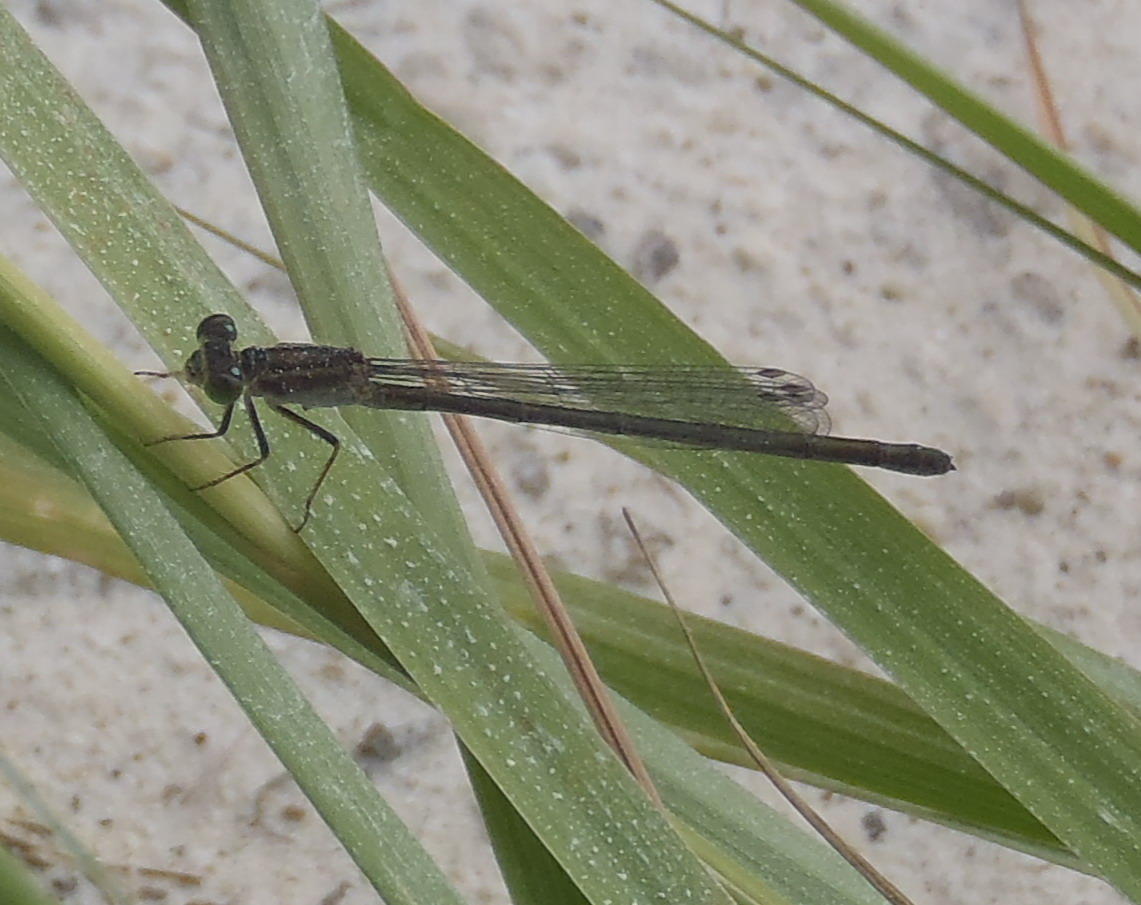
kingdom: Animalia
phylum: Arthropoda
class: Insecta
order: Odonata
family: Coenagrionidae
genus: Ischnura
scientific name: Ischnura senegalensis
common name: Tropical bluetail
